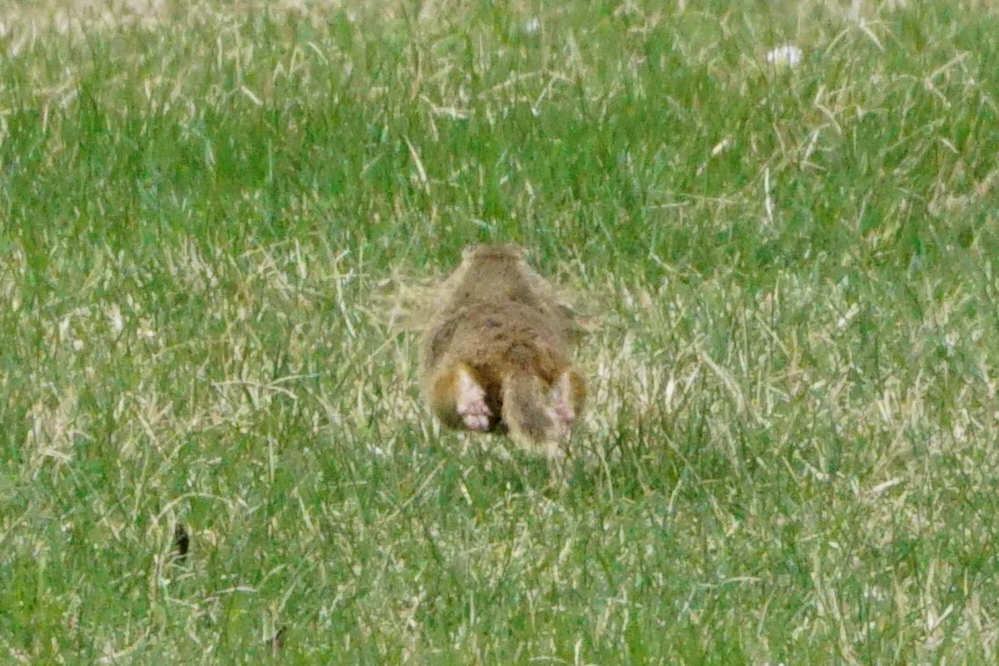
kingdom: Animalia
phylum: Chordata
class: Mammalia
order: Rodentia
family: Sciuridae
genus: Spermophilus
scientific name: Spermophilus citellus
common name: European ground squirrel
